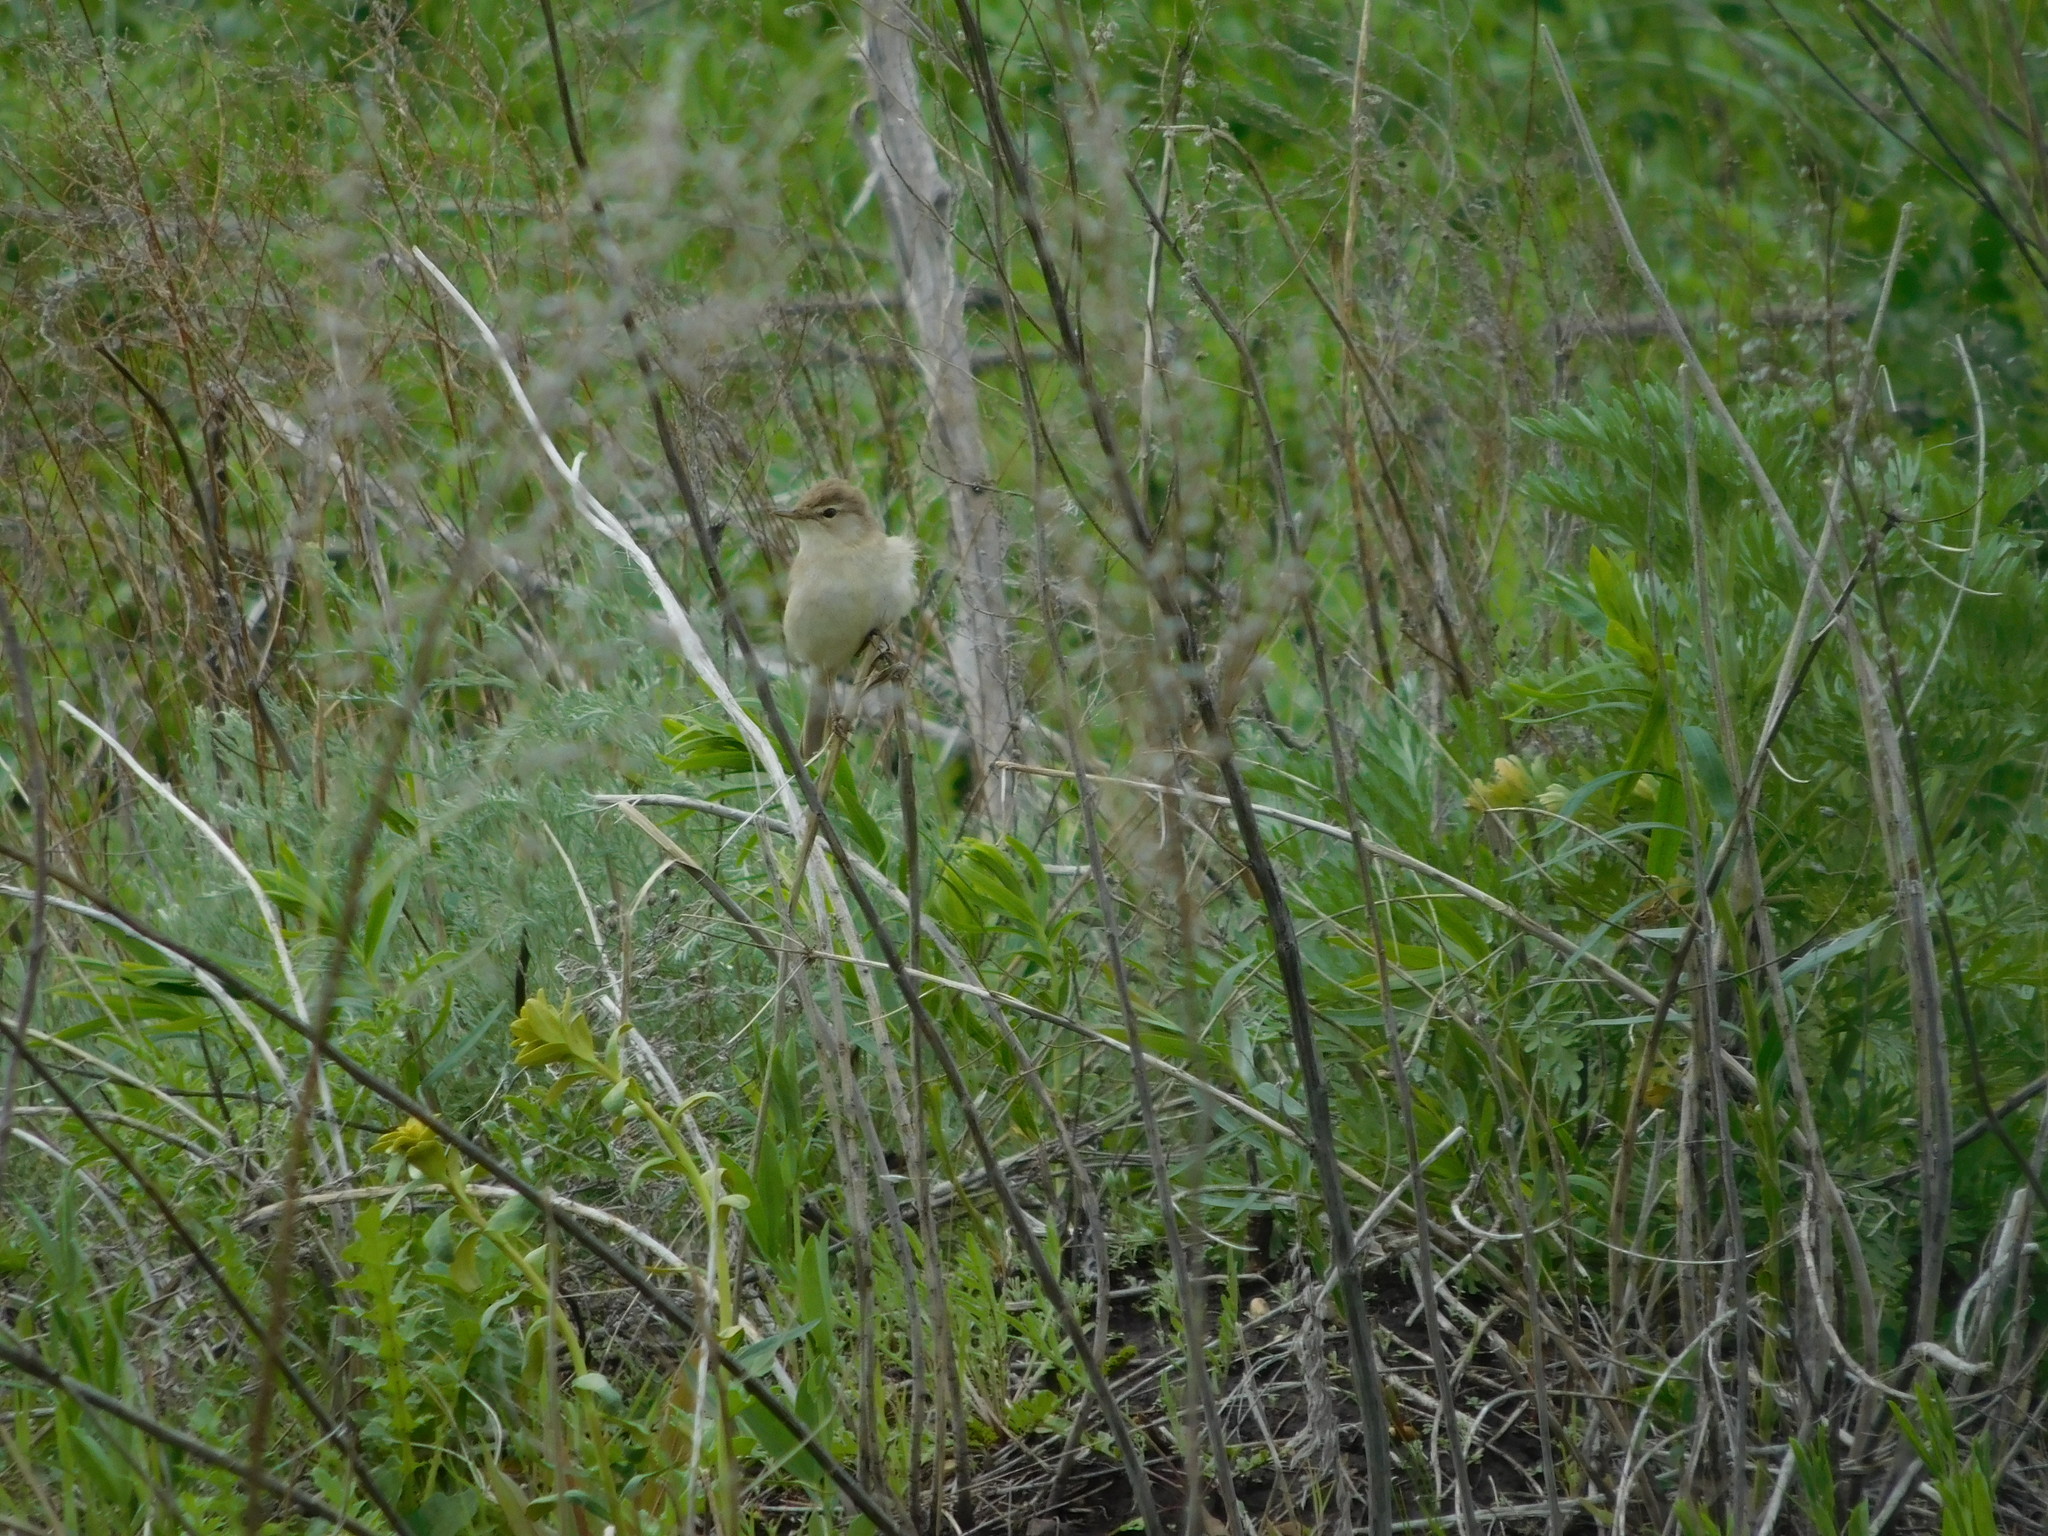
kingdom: Animalia
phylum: Chordata
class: Aves
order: Passeriformes
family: Acrocephalidae
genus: Iduna
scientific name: Iduna caligata
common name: Booted warbler
